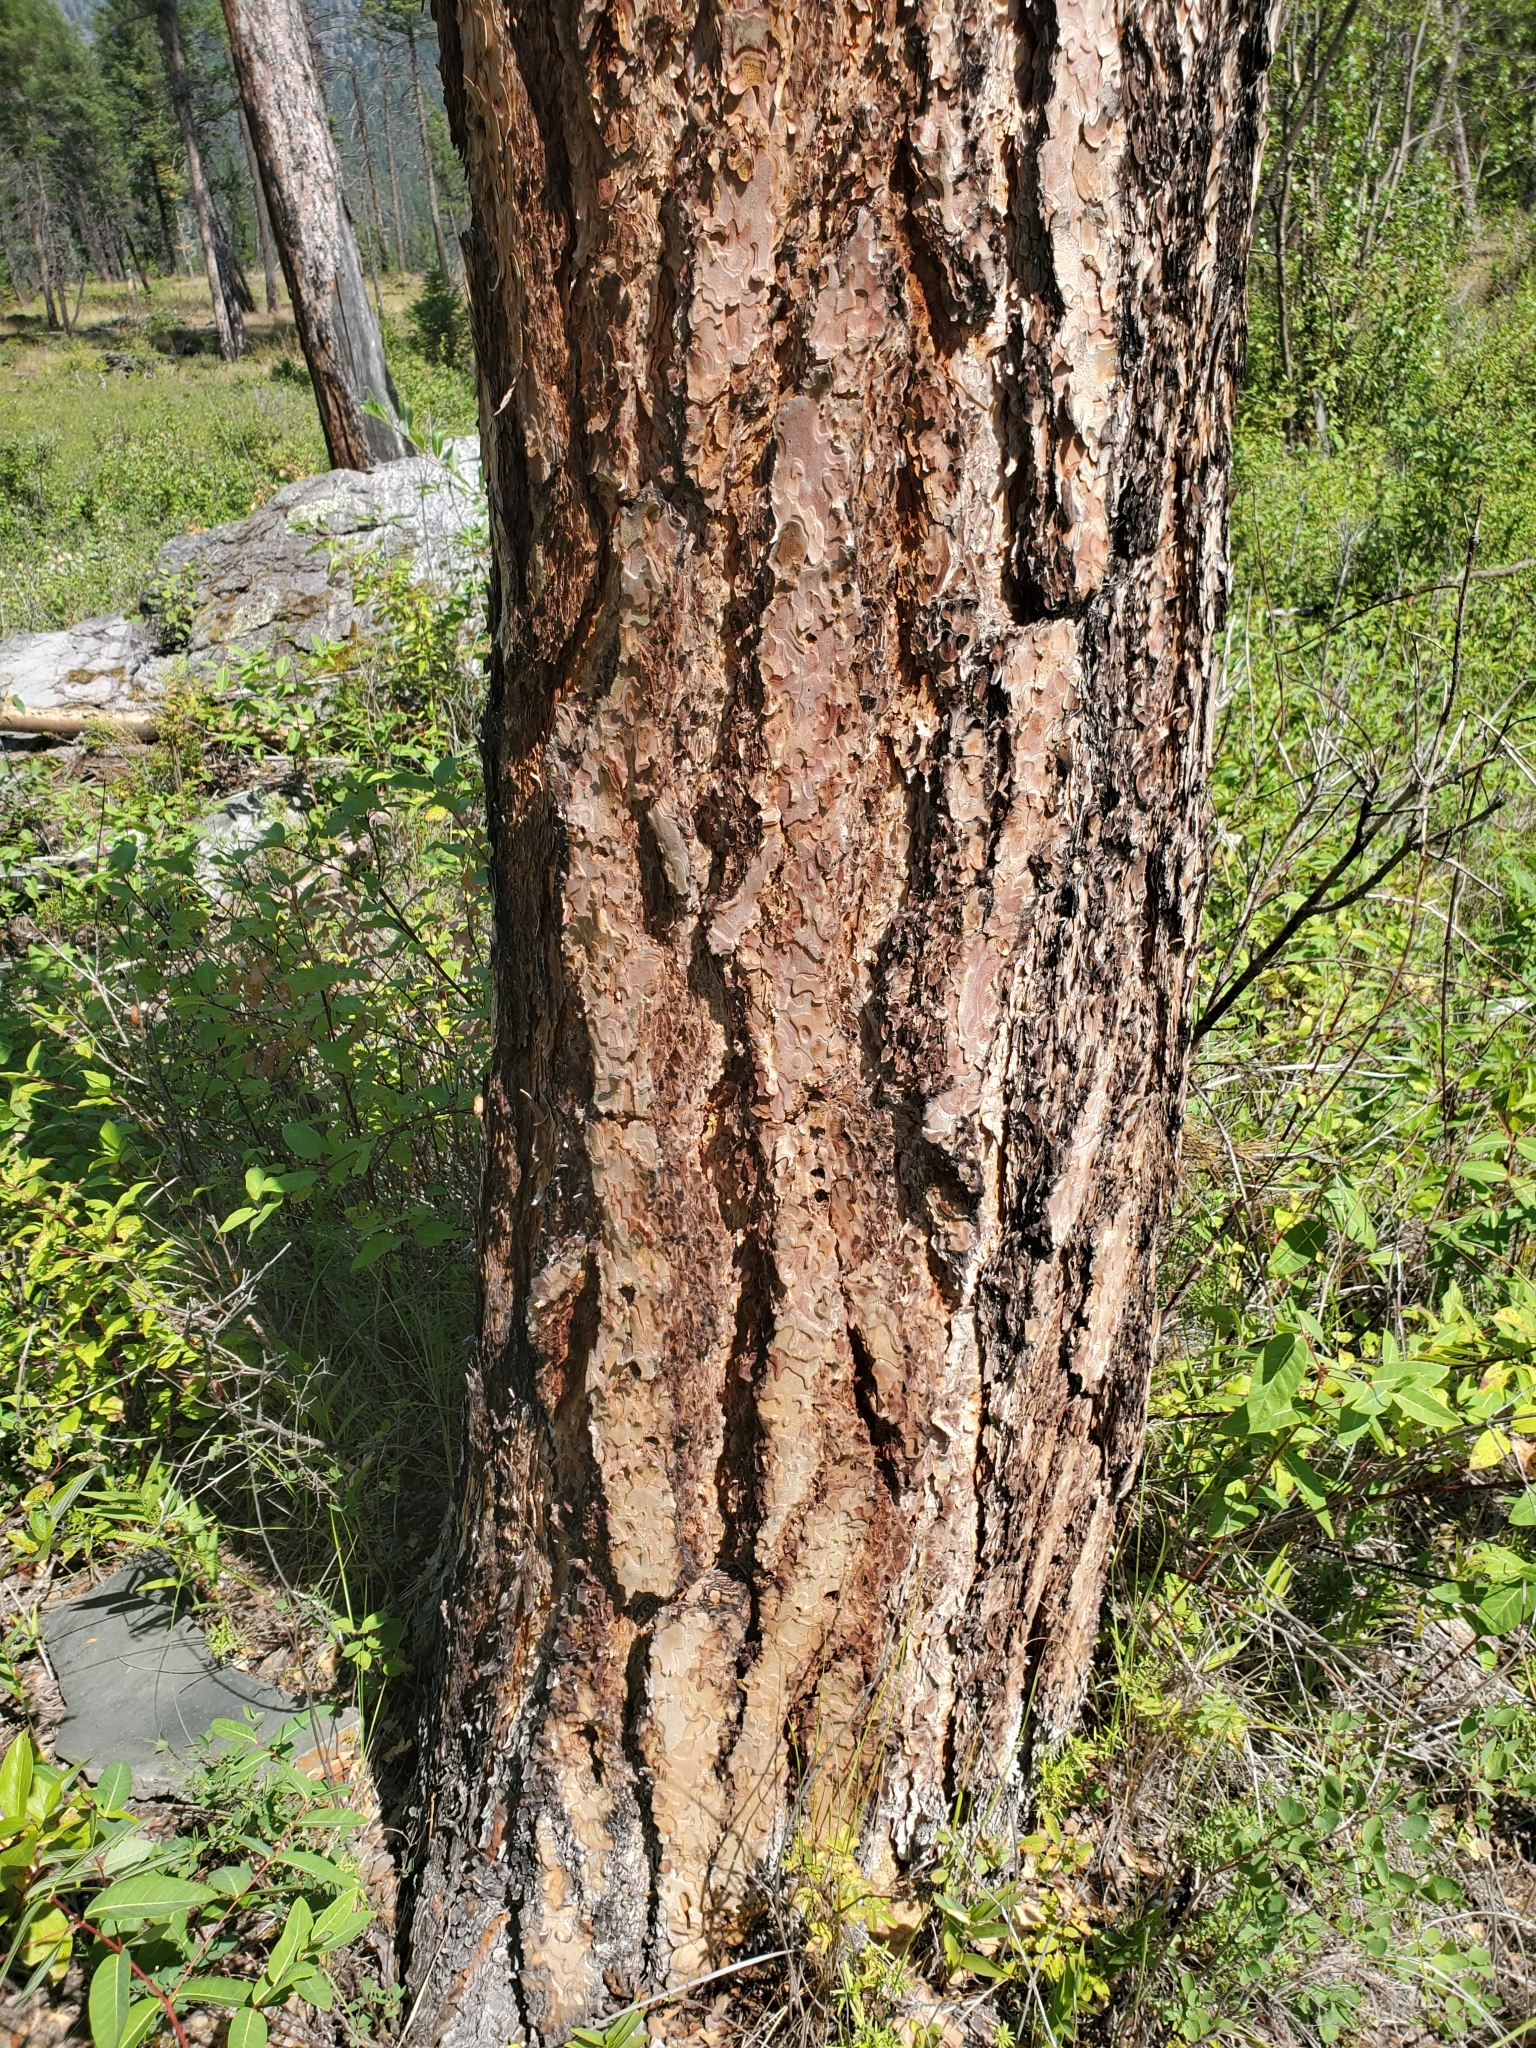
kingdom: Plantae
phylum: Tracheophyta
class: Pinopsida
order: Pinales
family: Pinaceae
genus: Pinus
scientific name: Pinus ponderosa
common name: Western yellow-pine
